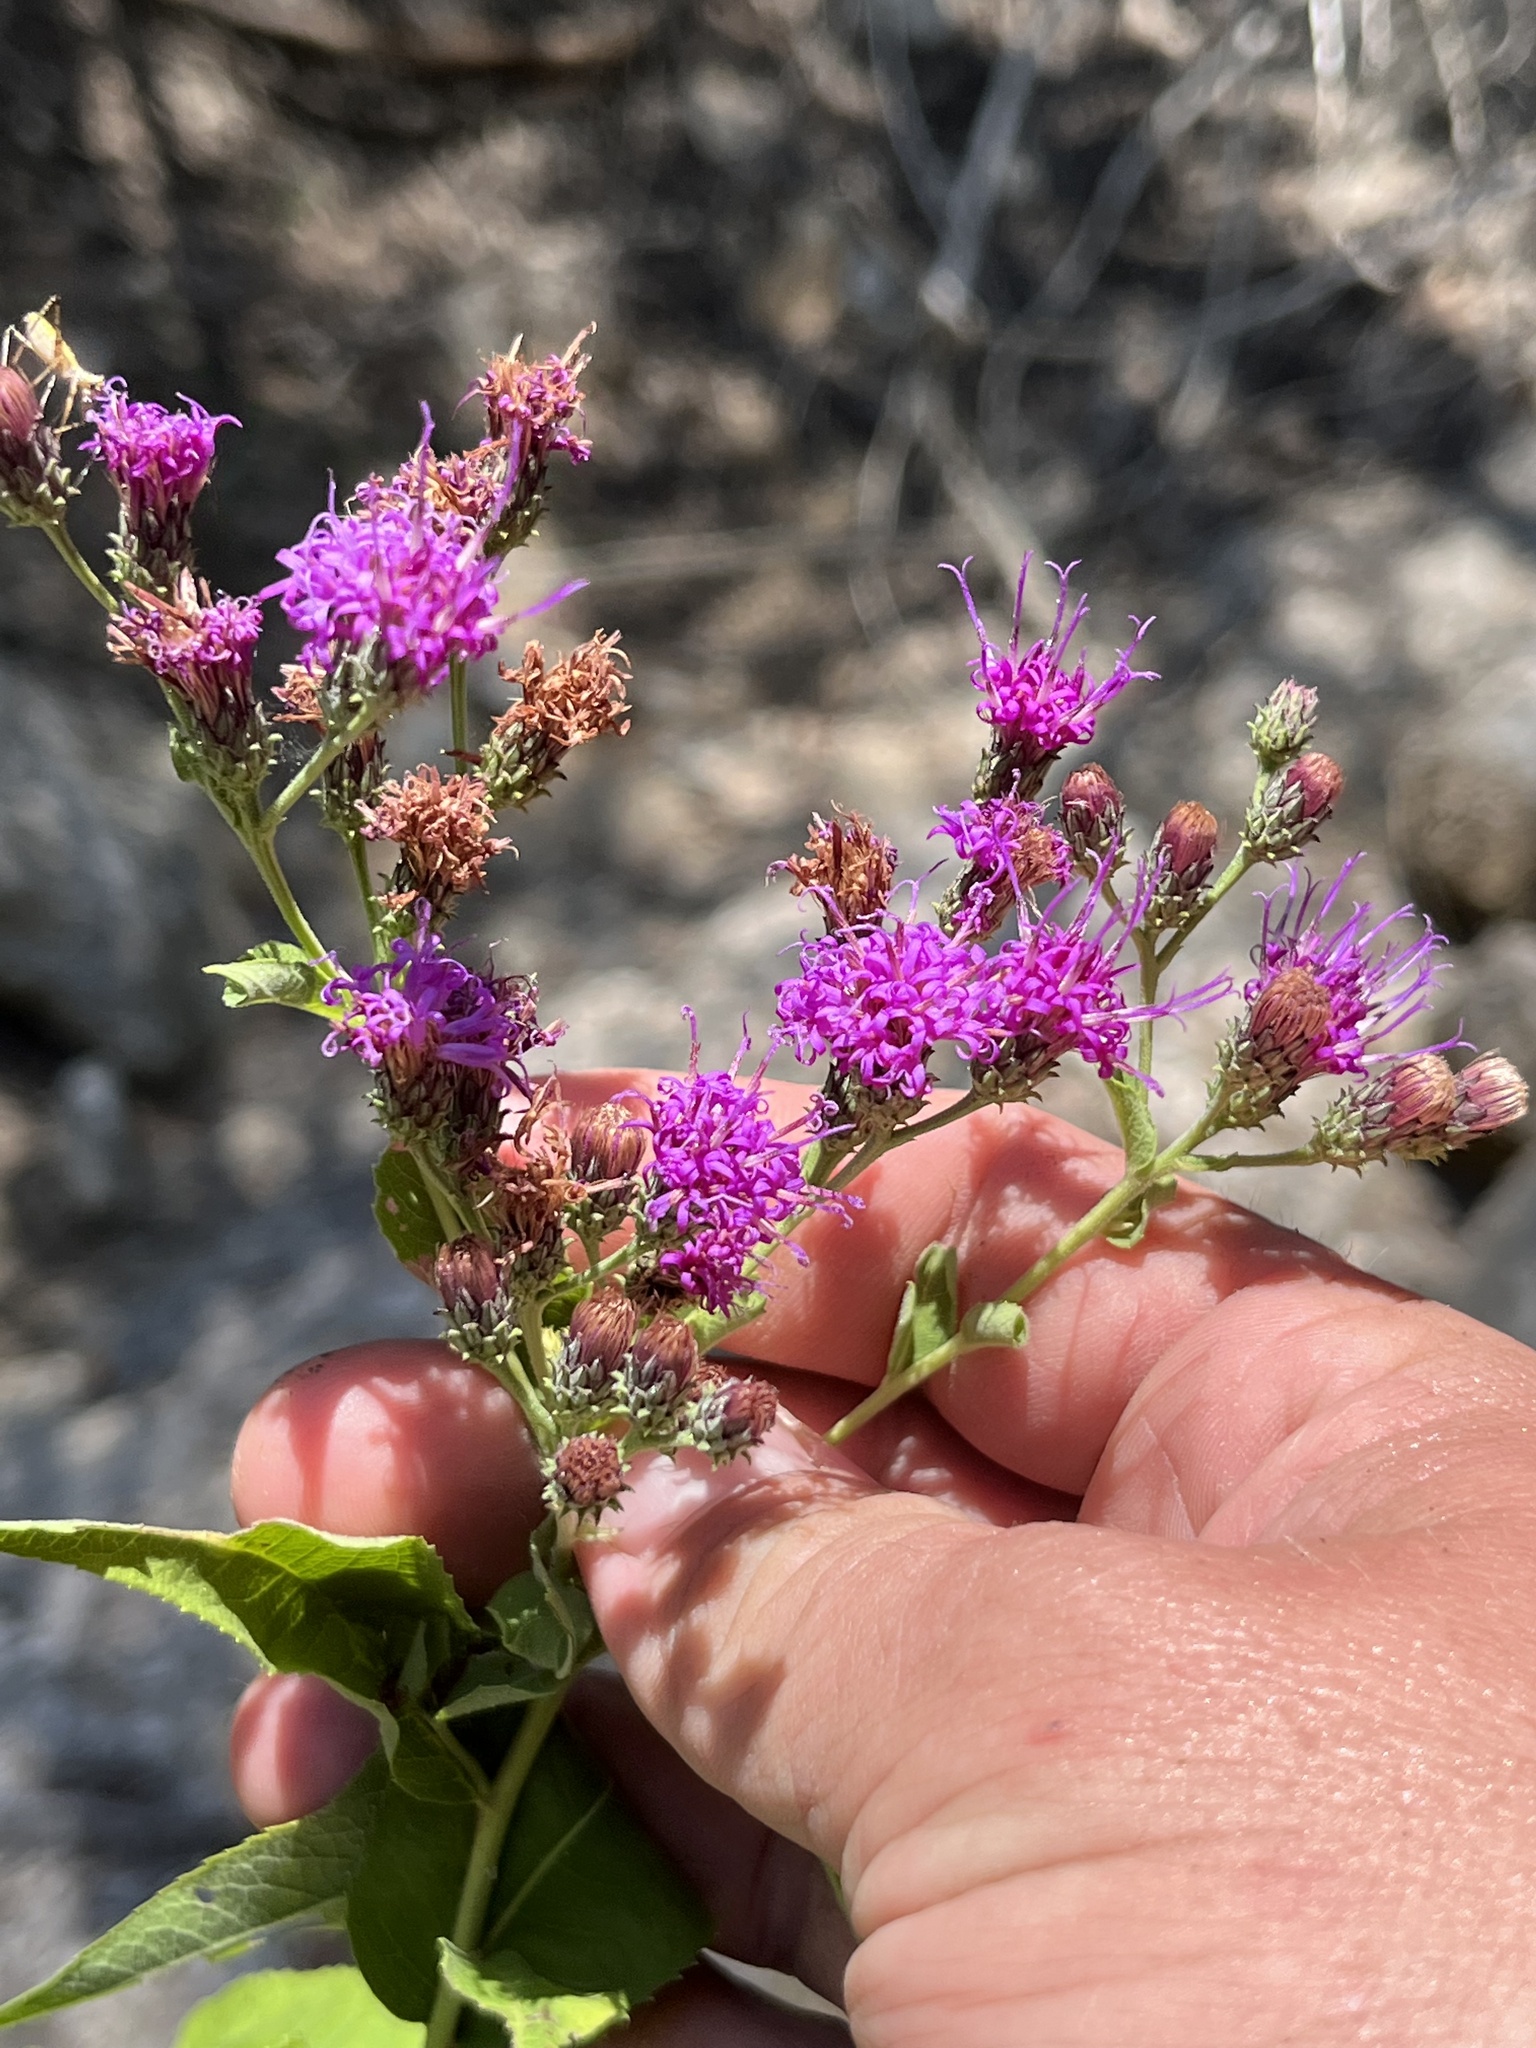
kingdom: Plantae
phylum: Tracheophyta
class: Magnoliopsida
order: Asterales
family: Asteraceae
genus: Vernonia
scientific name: Vernonia baldwinii
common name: Western ironweed
